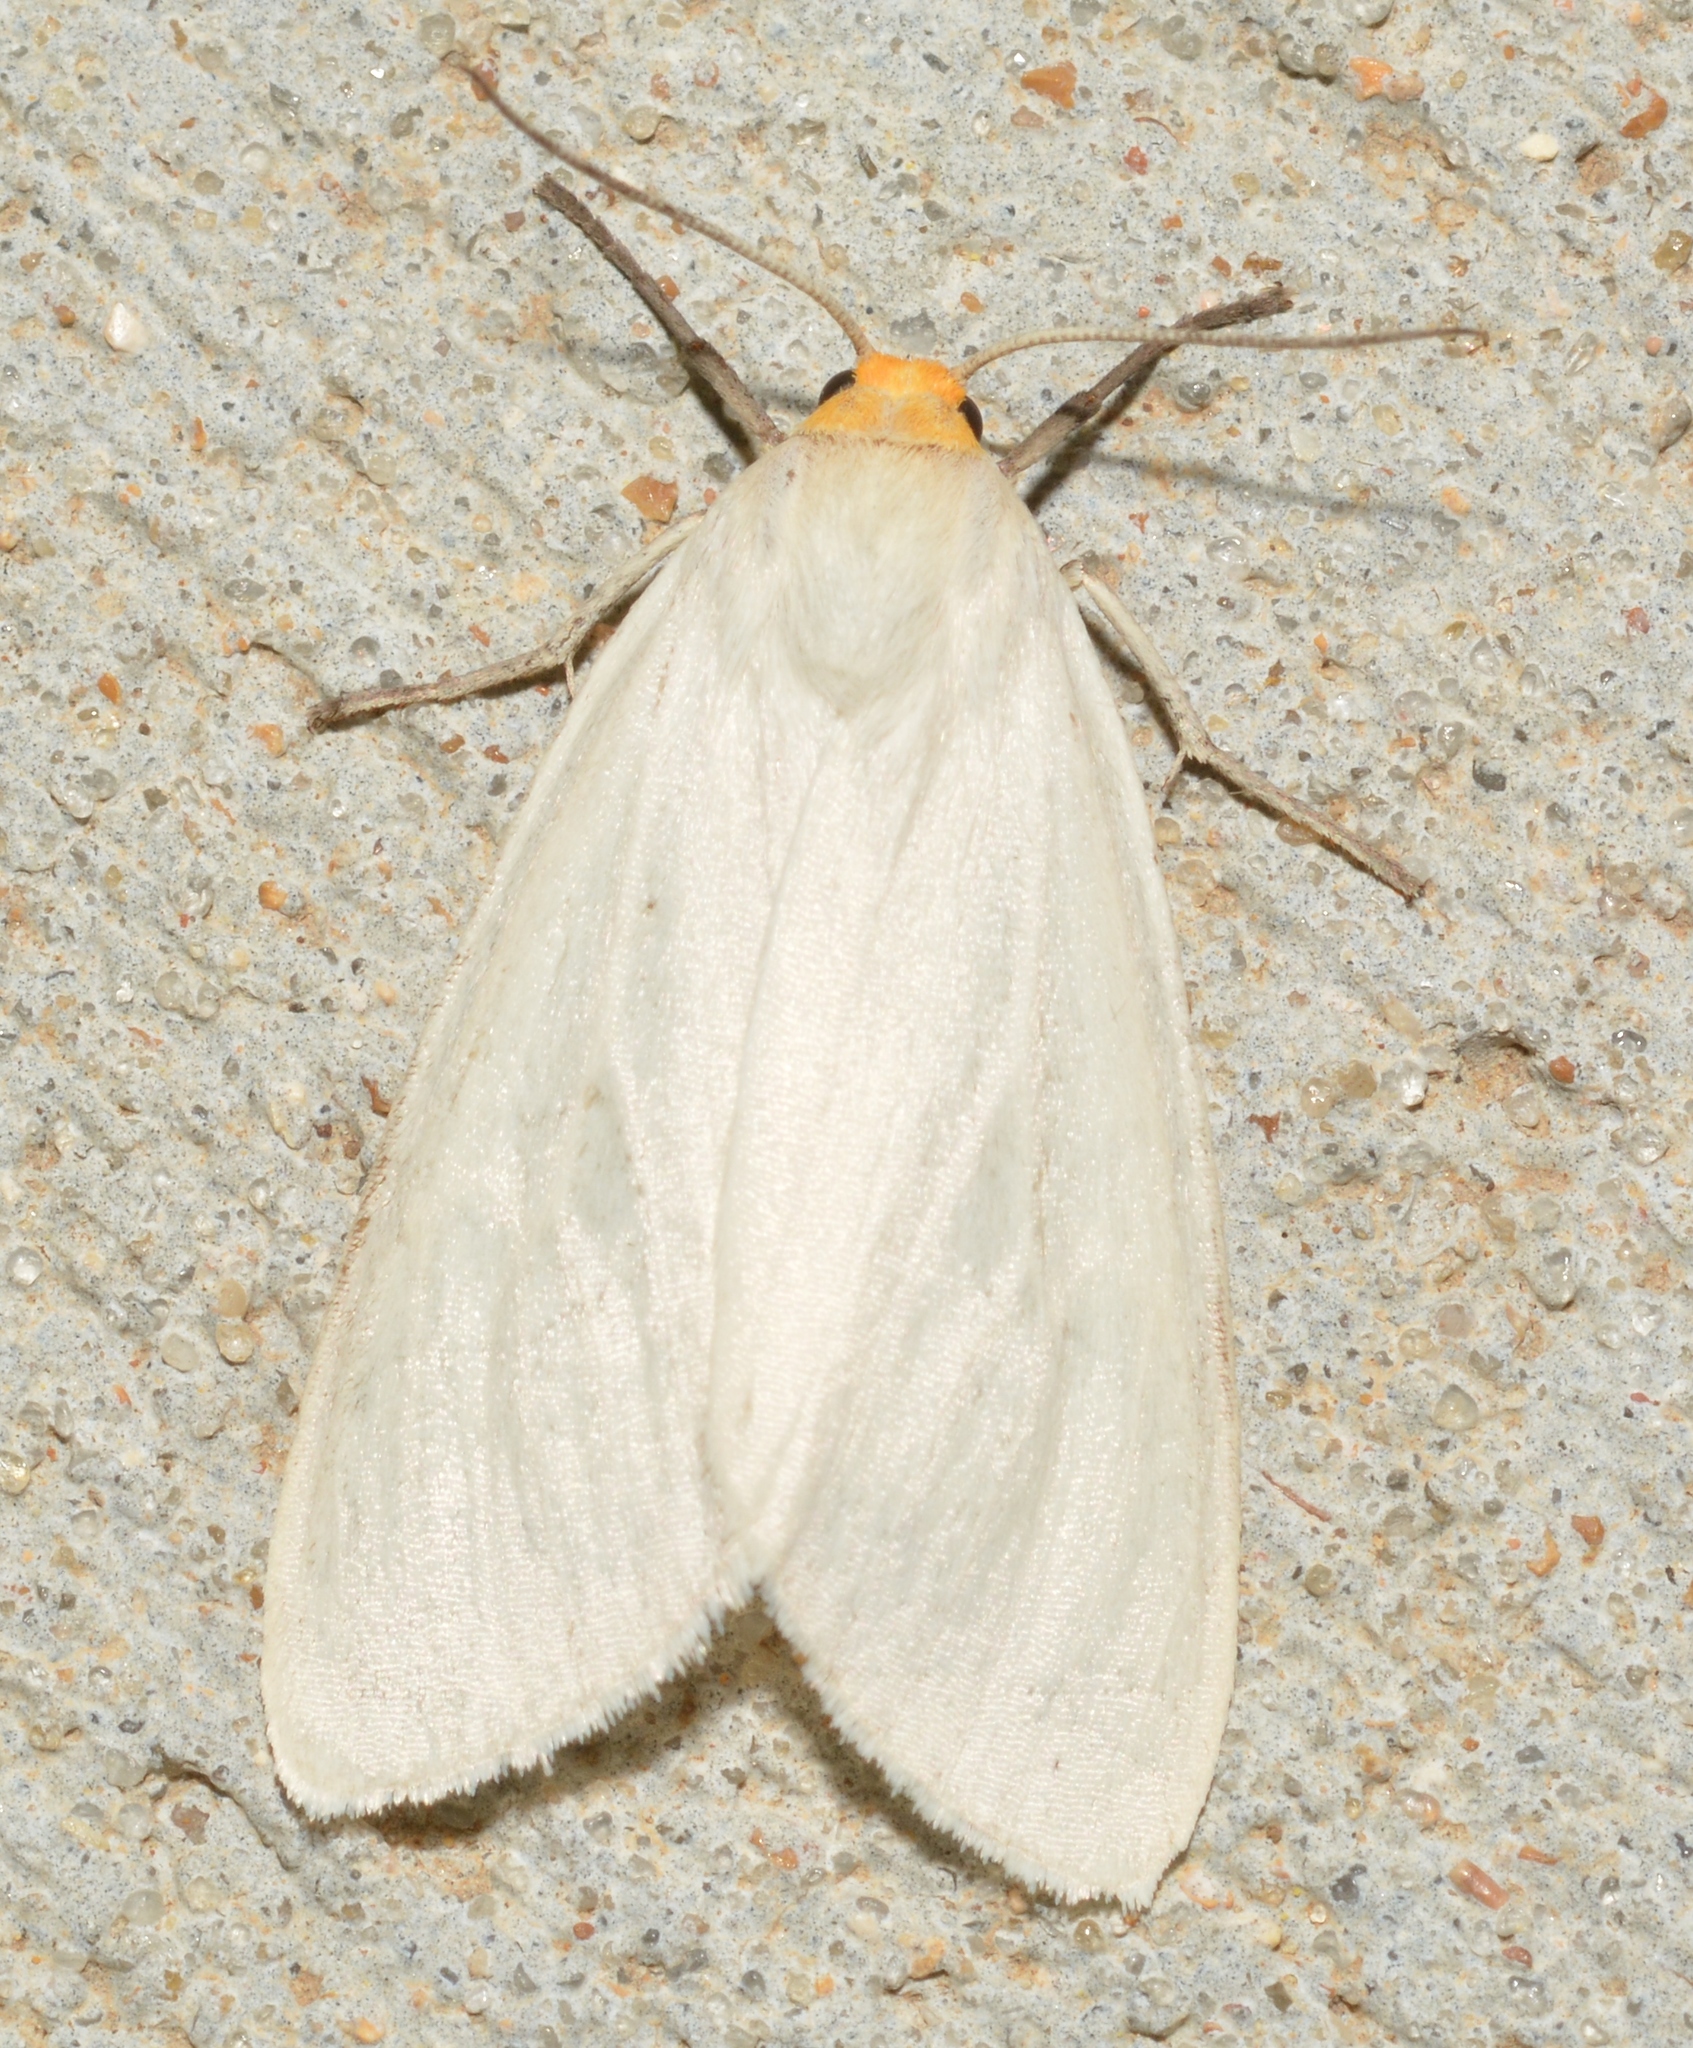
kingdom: Animalia
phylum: Arthropoda
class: Insecta
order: Lepidoptera
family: Erebidae
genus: Cycnia
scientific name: Cycnia oregonensis
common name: Oregon cycnia moth
